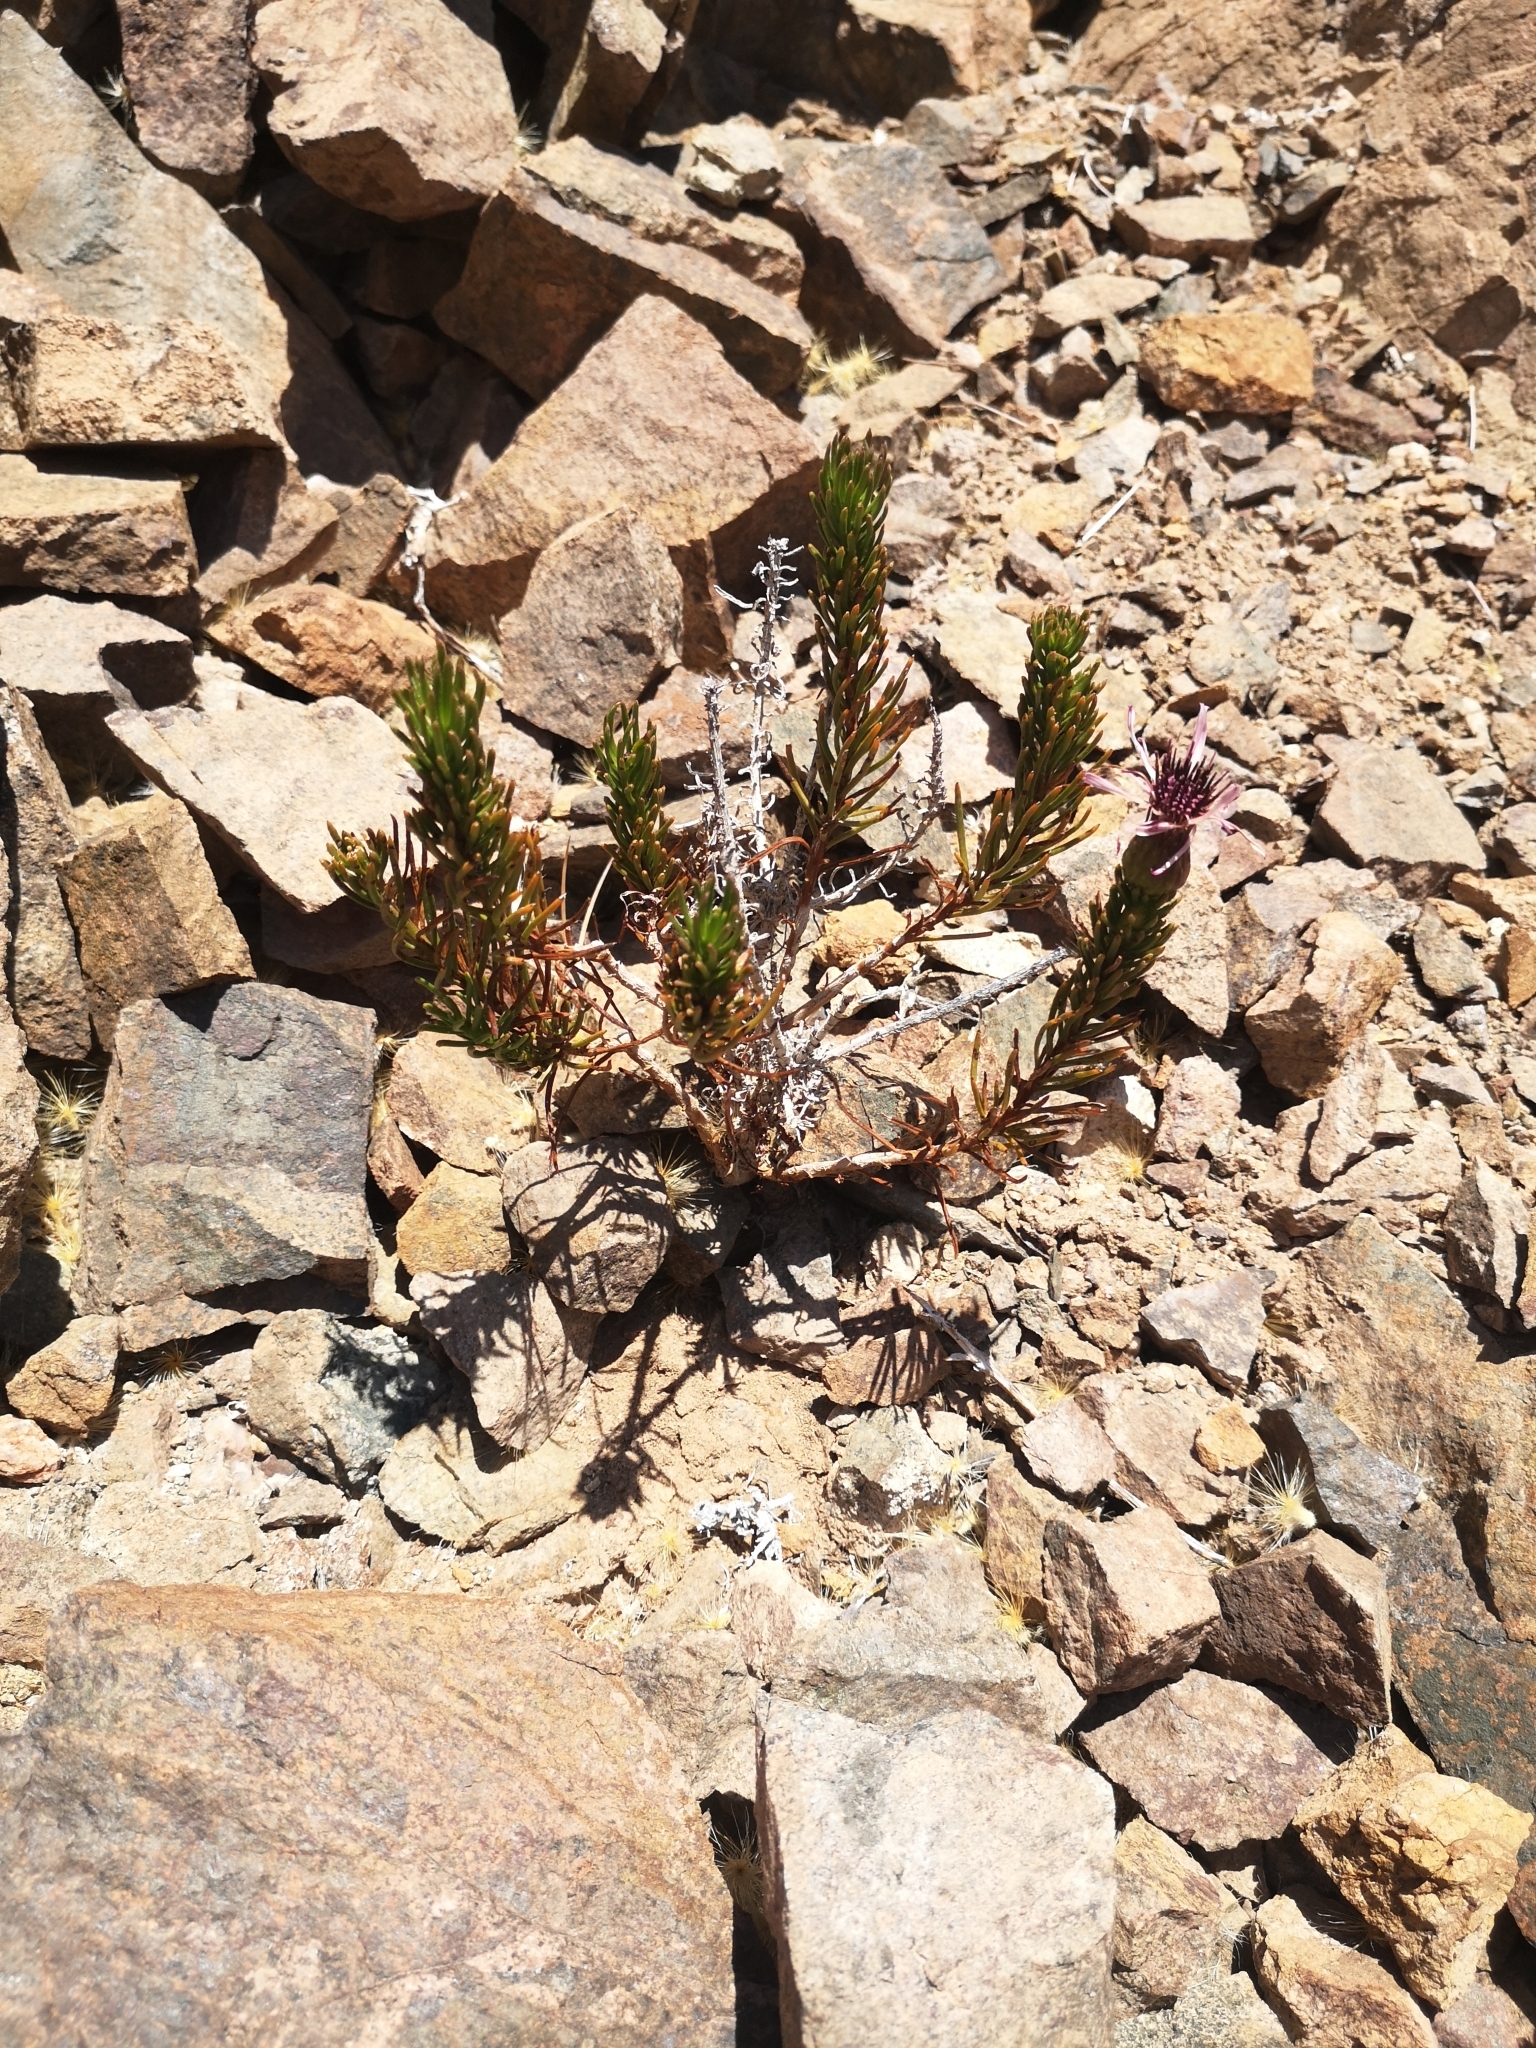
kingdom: Plantae
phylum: Tracheophyta
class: Magnoliopsida
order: Asterales
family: Asteraceae
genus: Gypothamnium
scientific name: Gypothamnium pinifolium
